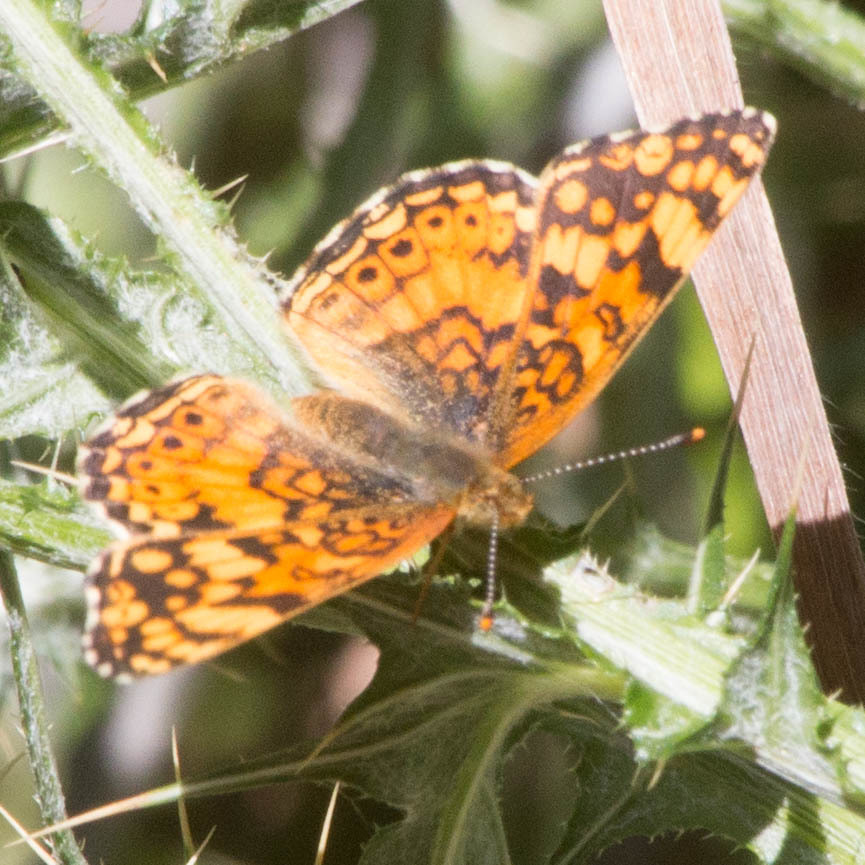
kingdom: Animalia
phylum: Arthropoda
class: Insecta
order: Lepidoptera
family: Nymphalidae
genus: Eresia
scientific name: Eresia aveyrona
